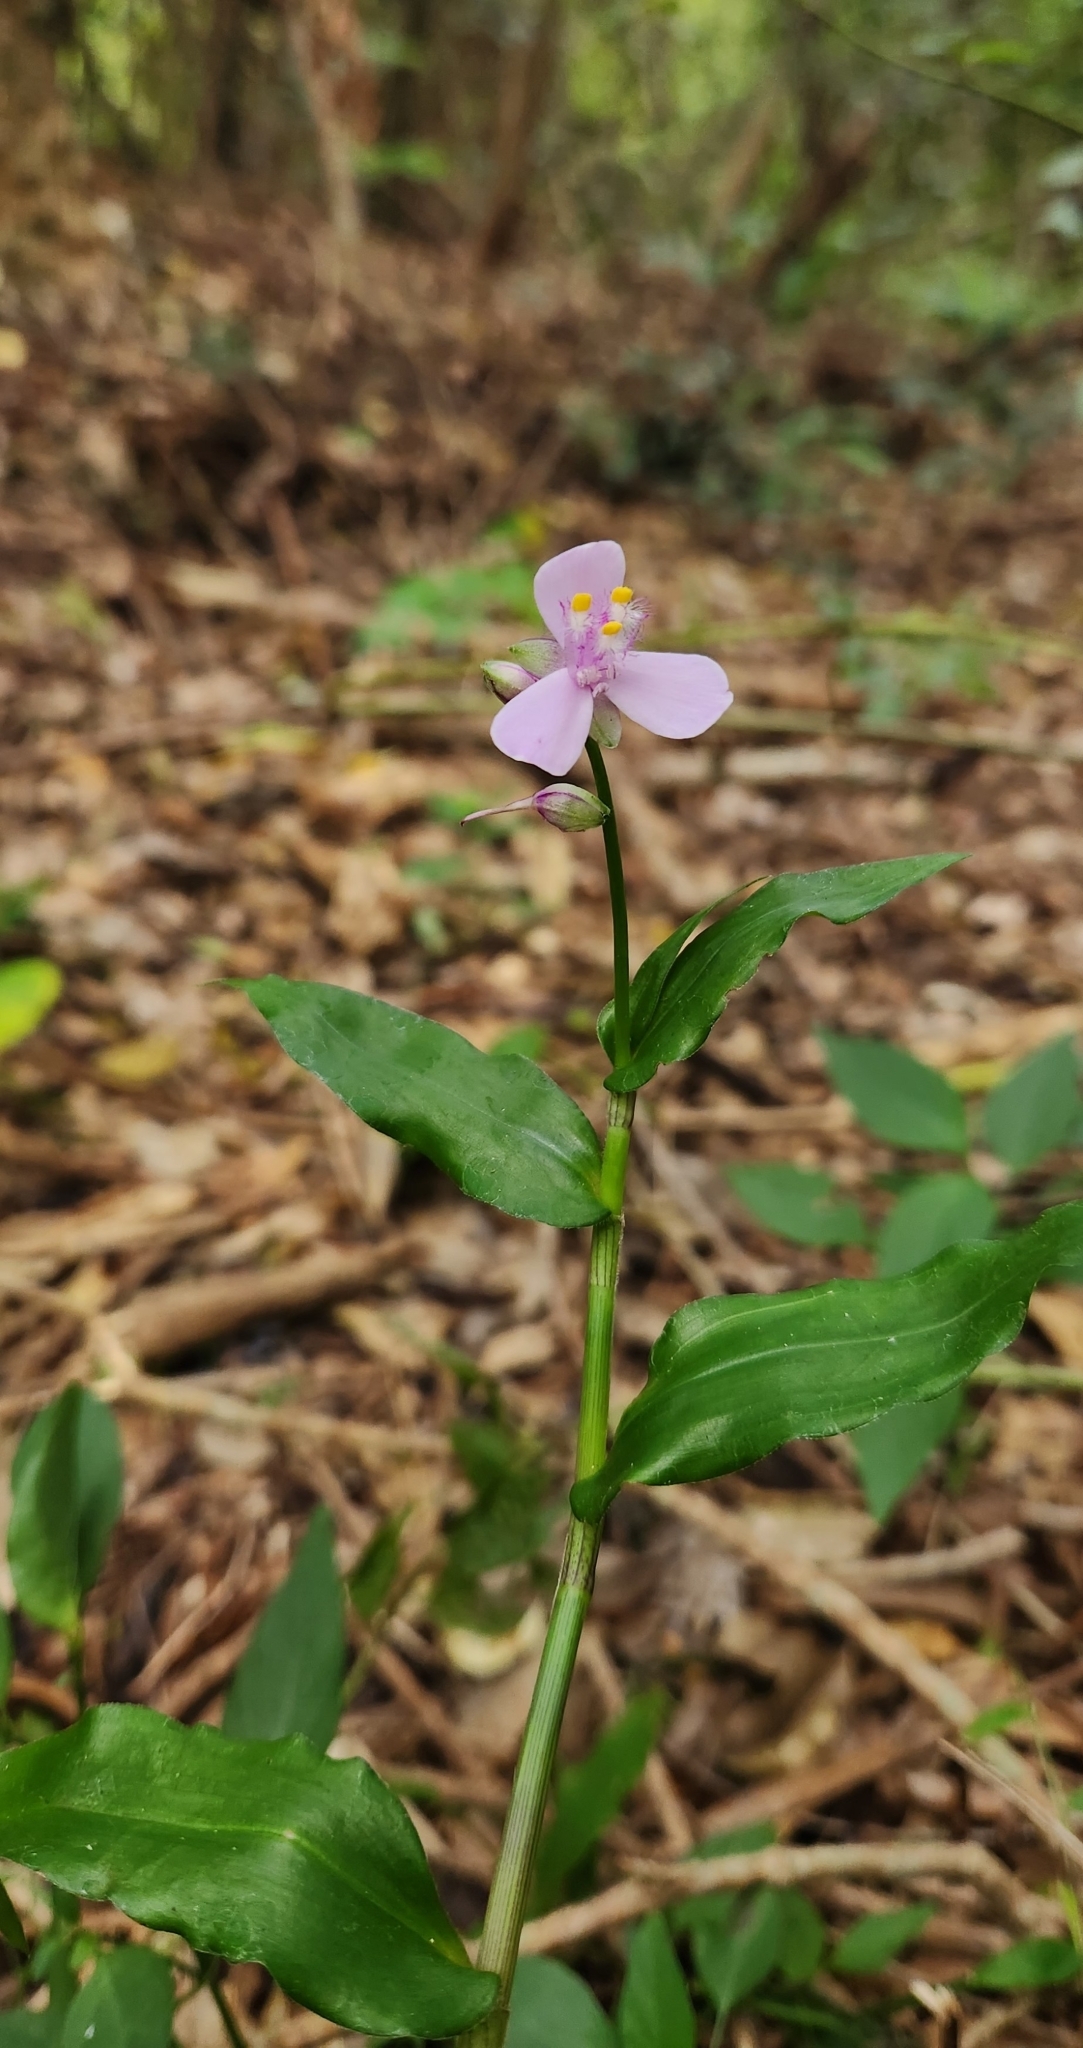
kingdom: Plantae
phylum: Tracheophyta
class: Liliopsida
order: Commelinales
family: Commelinaceae
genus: Callisia
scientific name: Callisia diuretica
